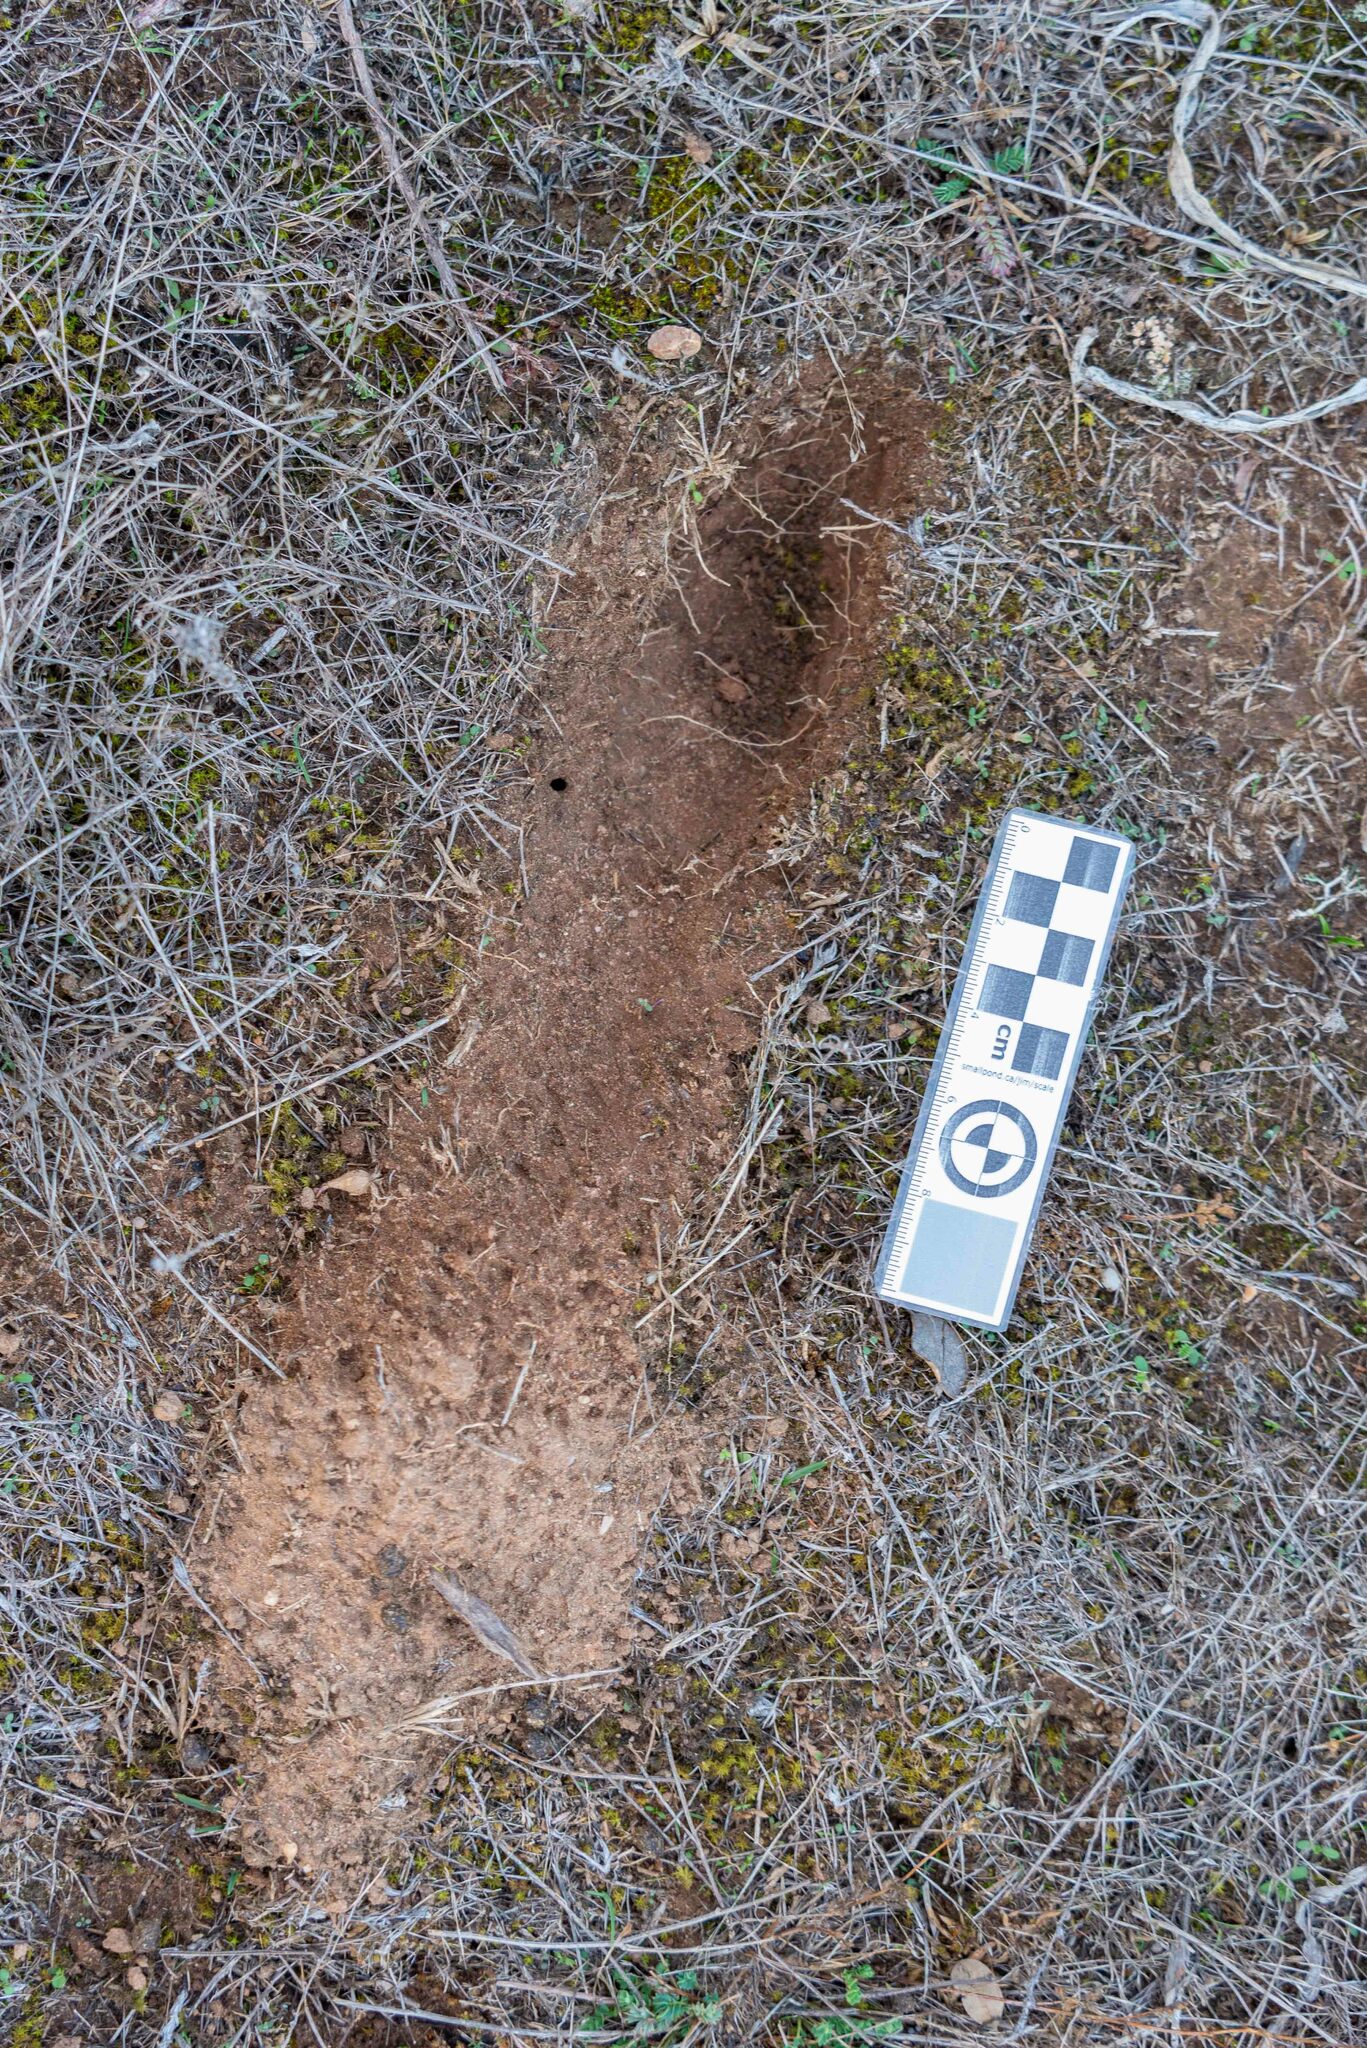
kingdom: Animalia
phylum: Chordata
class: Mammalia
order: Lagomorpha
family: Leporidae
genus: Oryctolagus
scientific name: Oryctolagus cuniculus
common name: European rabbit
